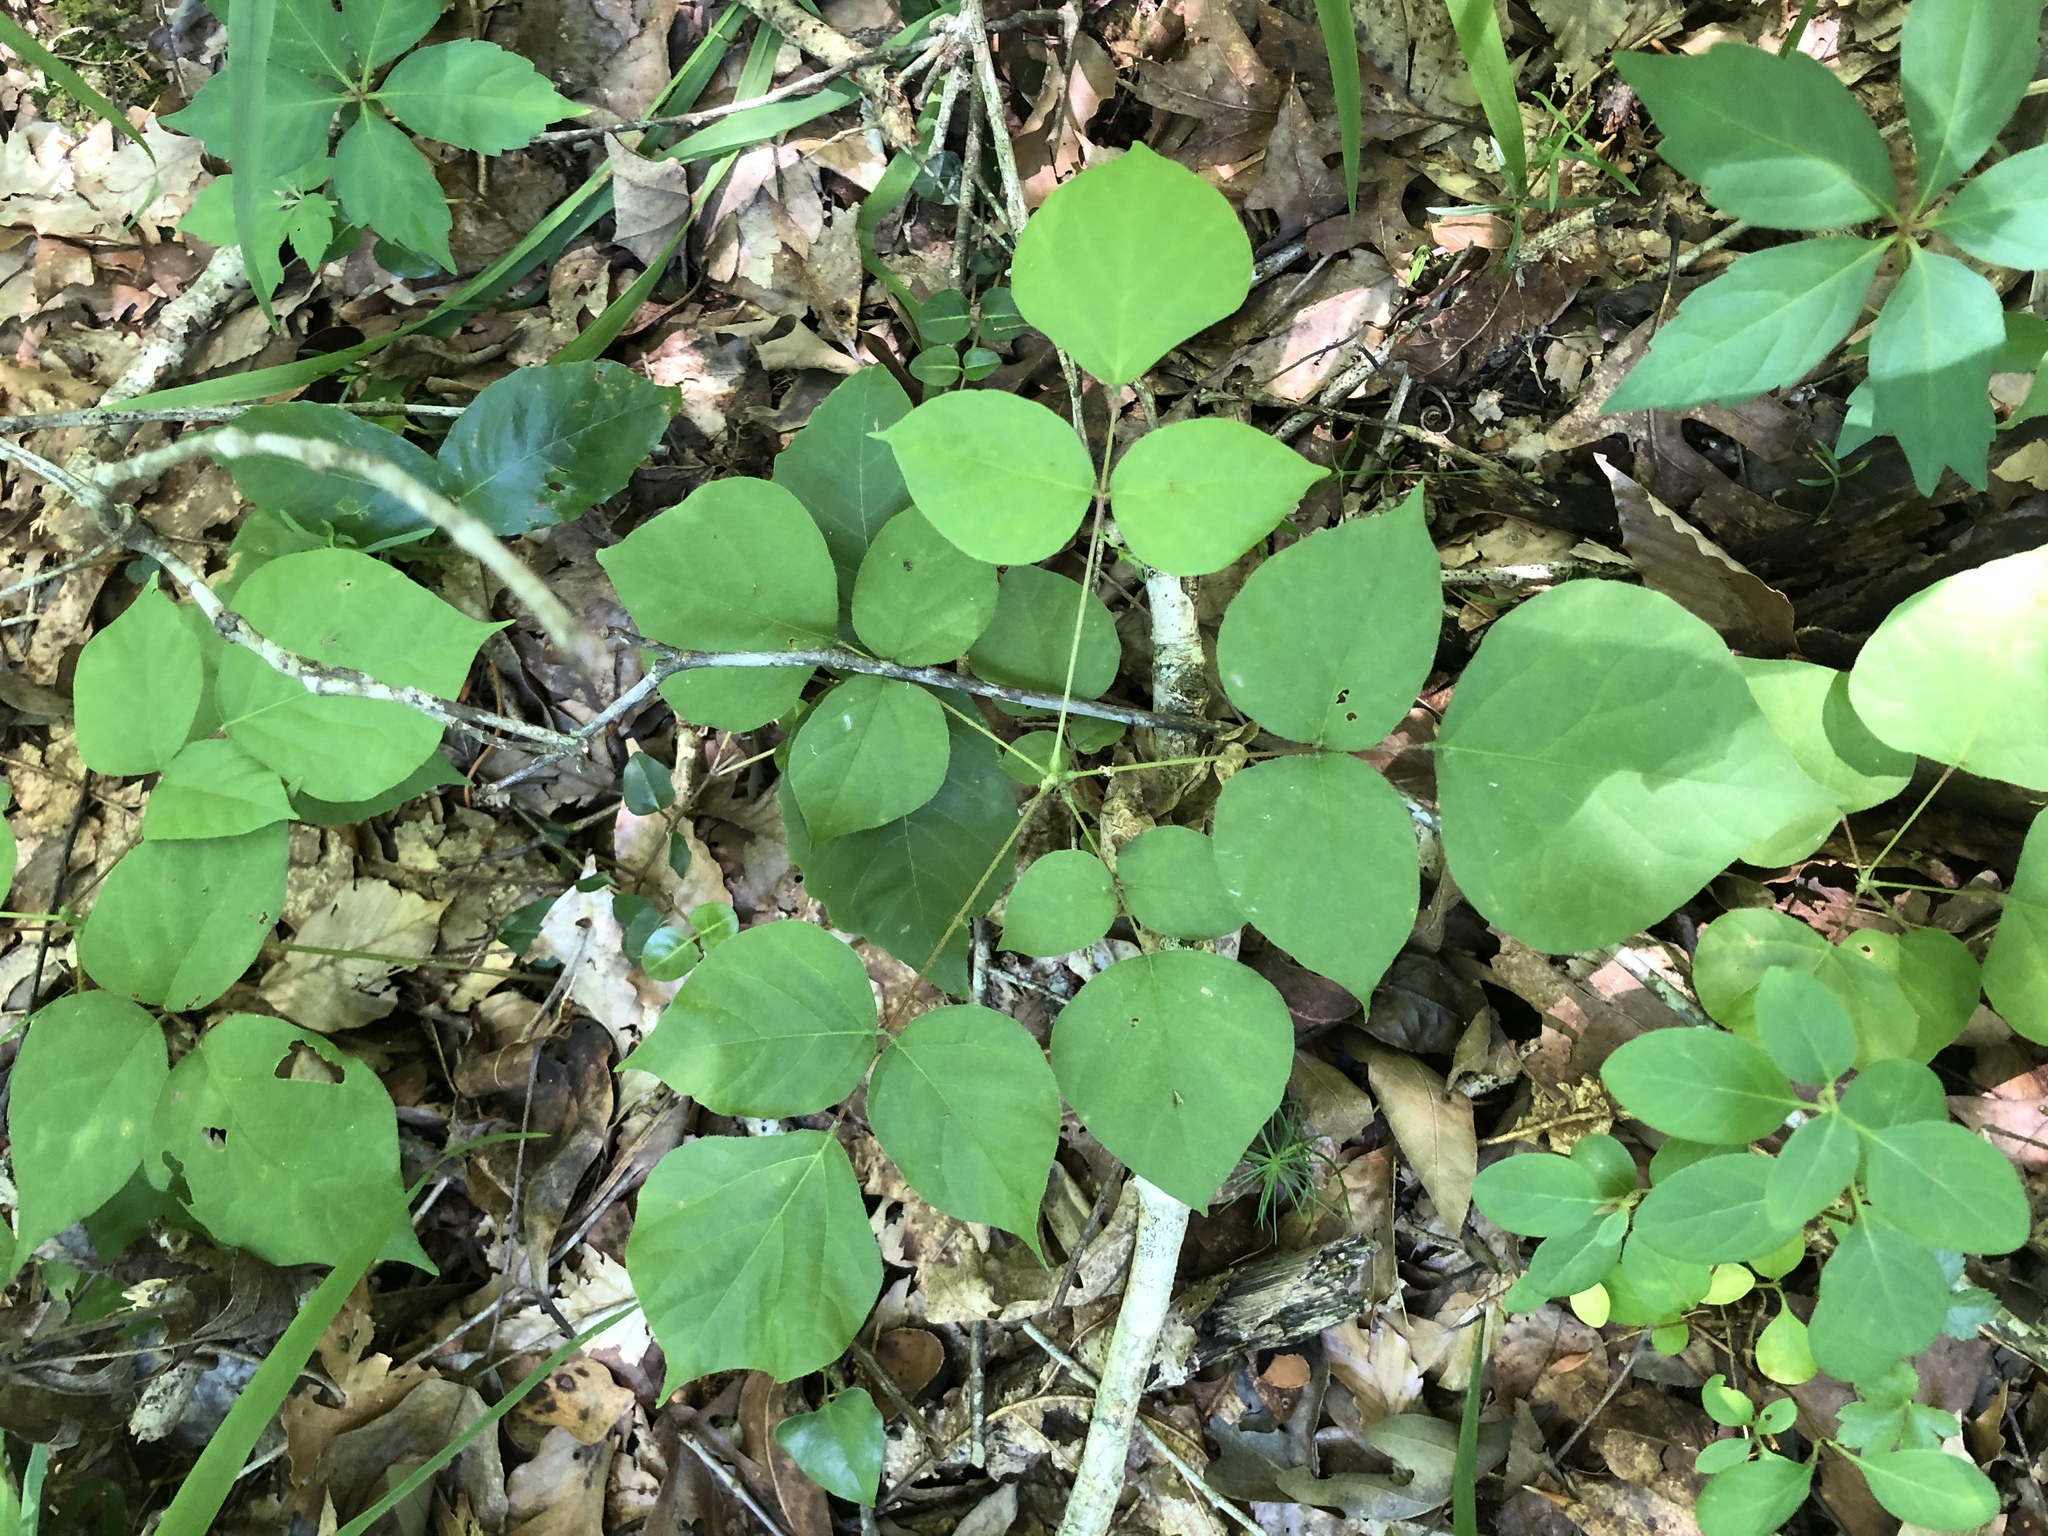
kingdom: Plantae
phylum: Tracheophyta
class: Magnoliopsida
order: Fabales
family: Fabaceae
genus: Hylodesmum
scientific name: Hylodesmum glutinosum
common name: Clustered-leaved tick-trefoil
